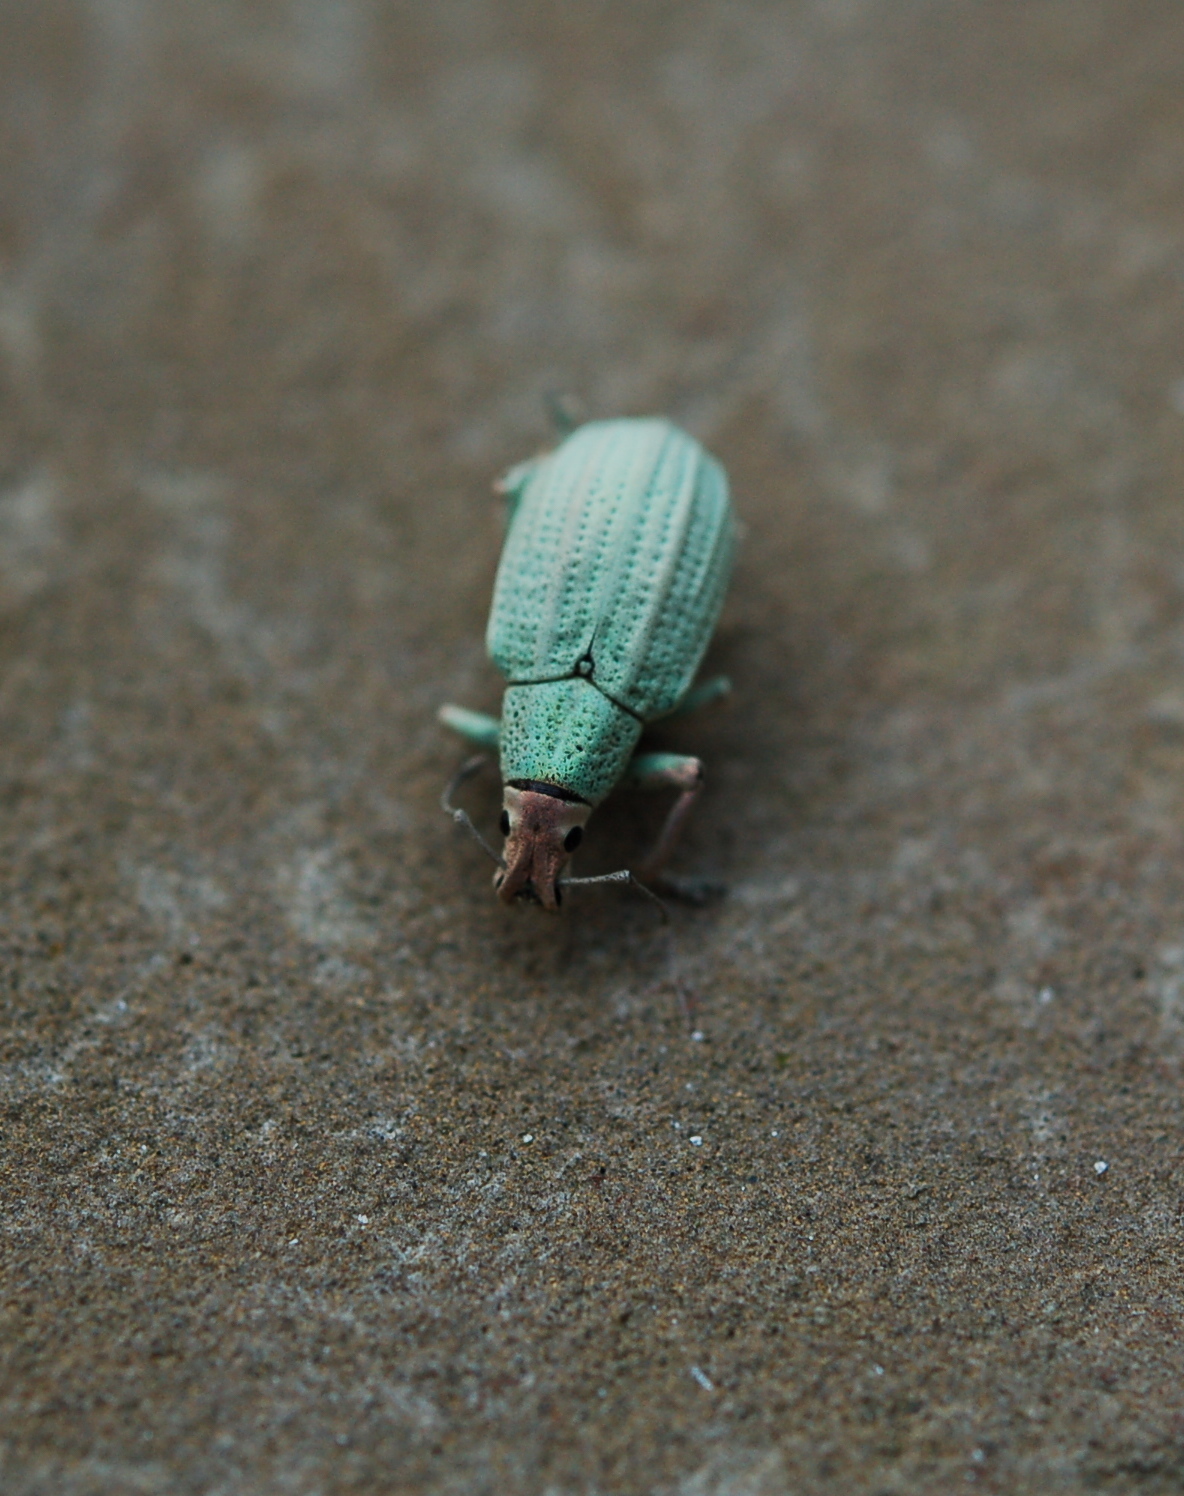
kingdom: Animalia
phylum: Arthropoda
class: Insecta
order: Coleoptera
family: Curculionidae
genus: Compsus
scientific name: Compsus auricephalus
